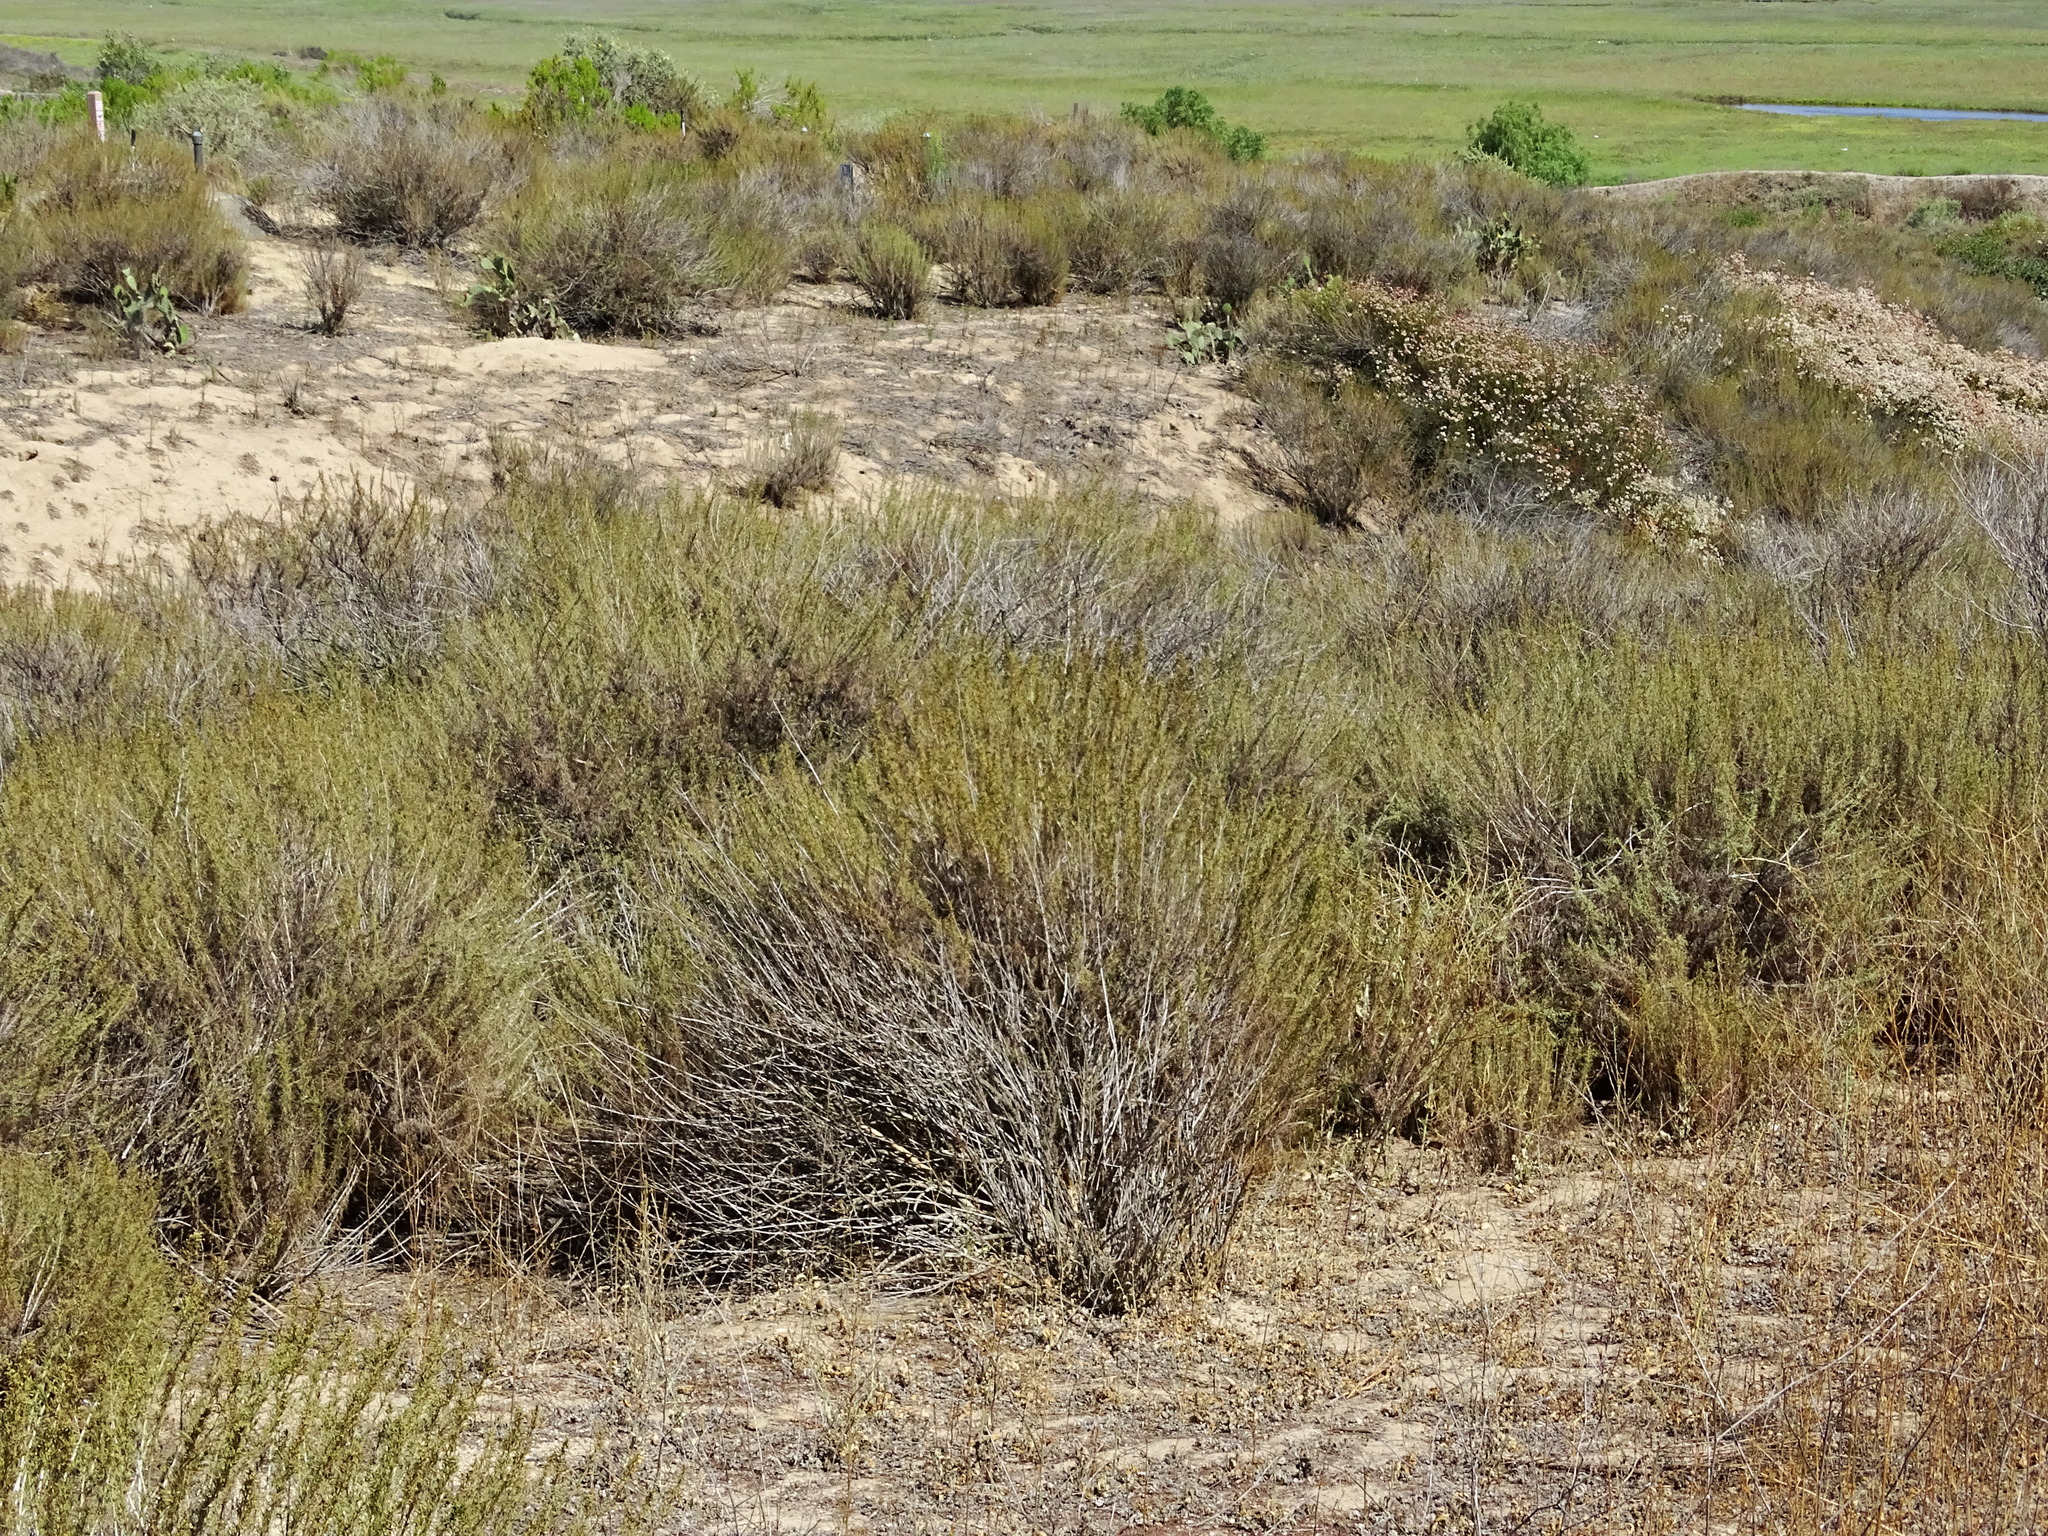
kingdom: Plantae
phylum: Tracheophyta
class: Magnoliopsida
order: Asterales
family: Asteraceae
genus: Artemisia
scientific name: Artemisia californica
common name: California sagebrush
